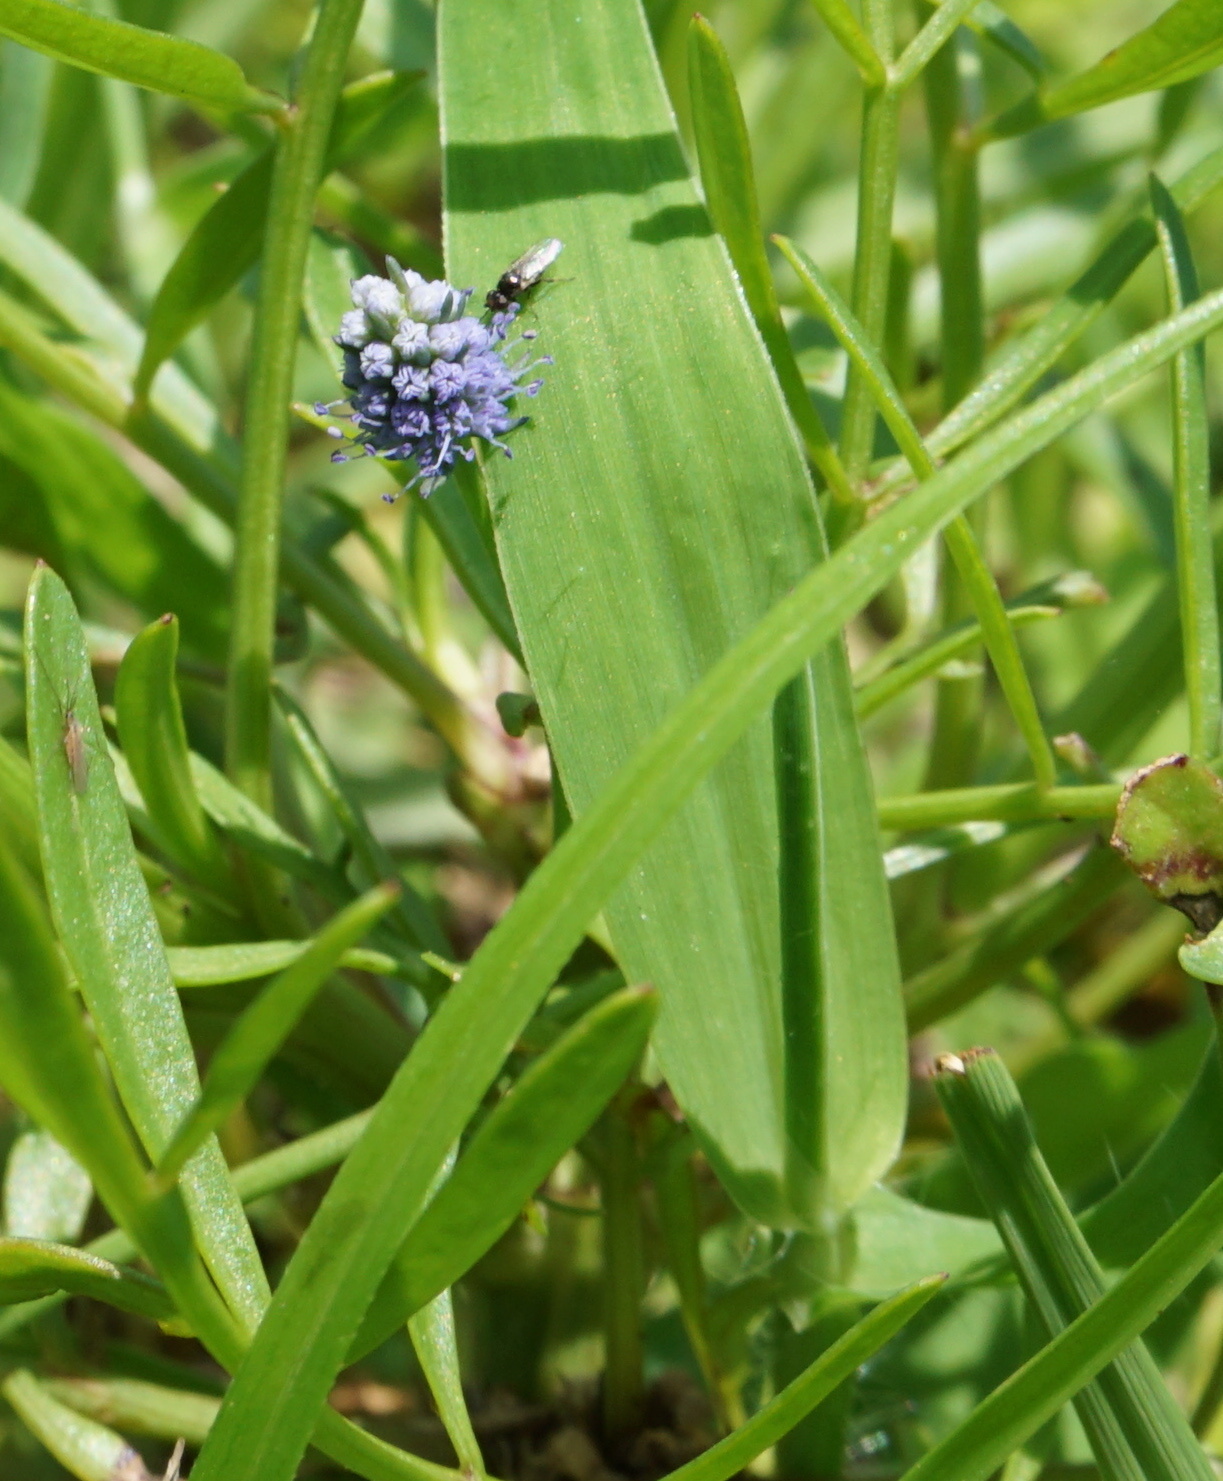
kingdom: Plantae
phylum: Tracheophyta
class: Magnoliopsida
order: Apiales
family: Apiaceae
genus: Eryngium
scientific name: Eryngium baldwinii
